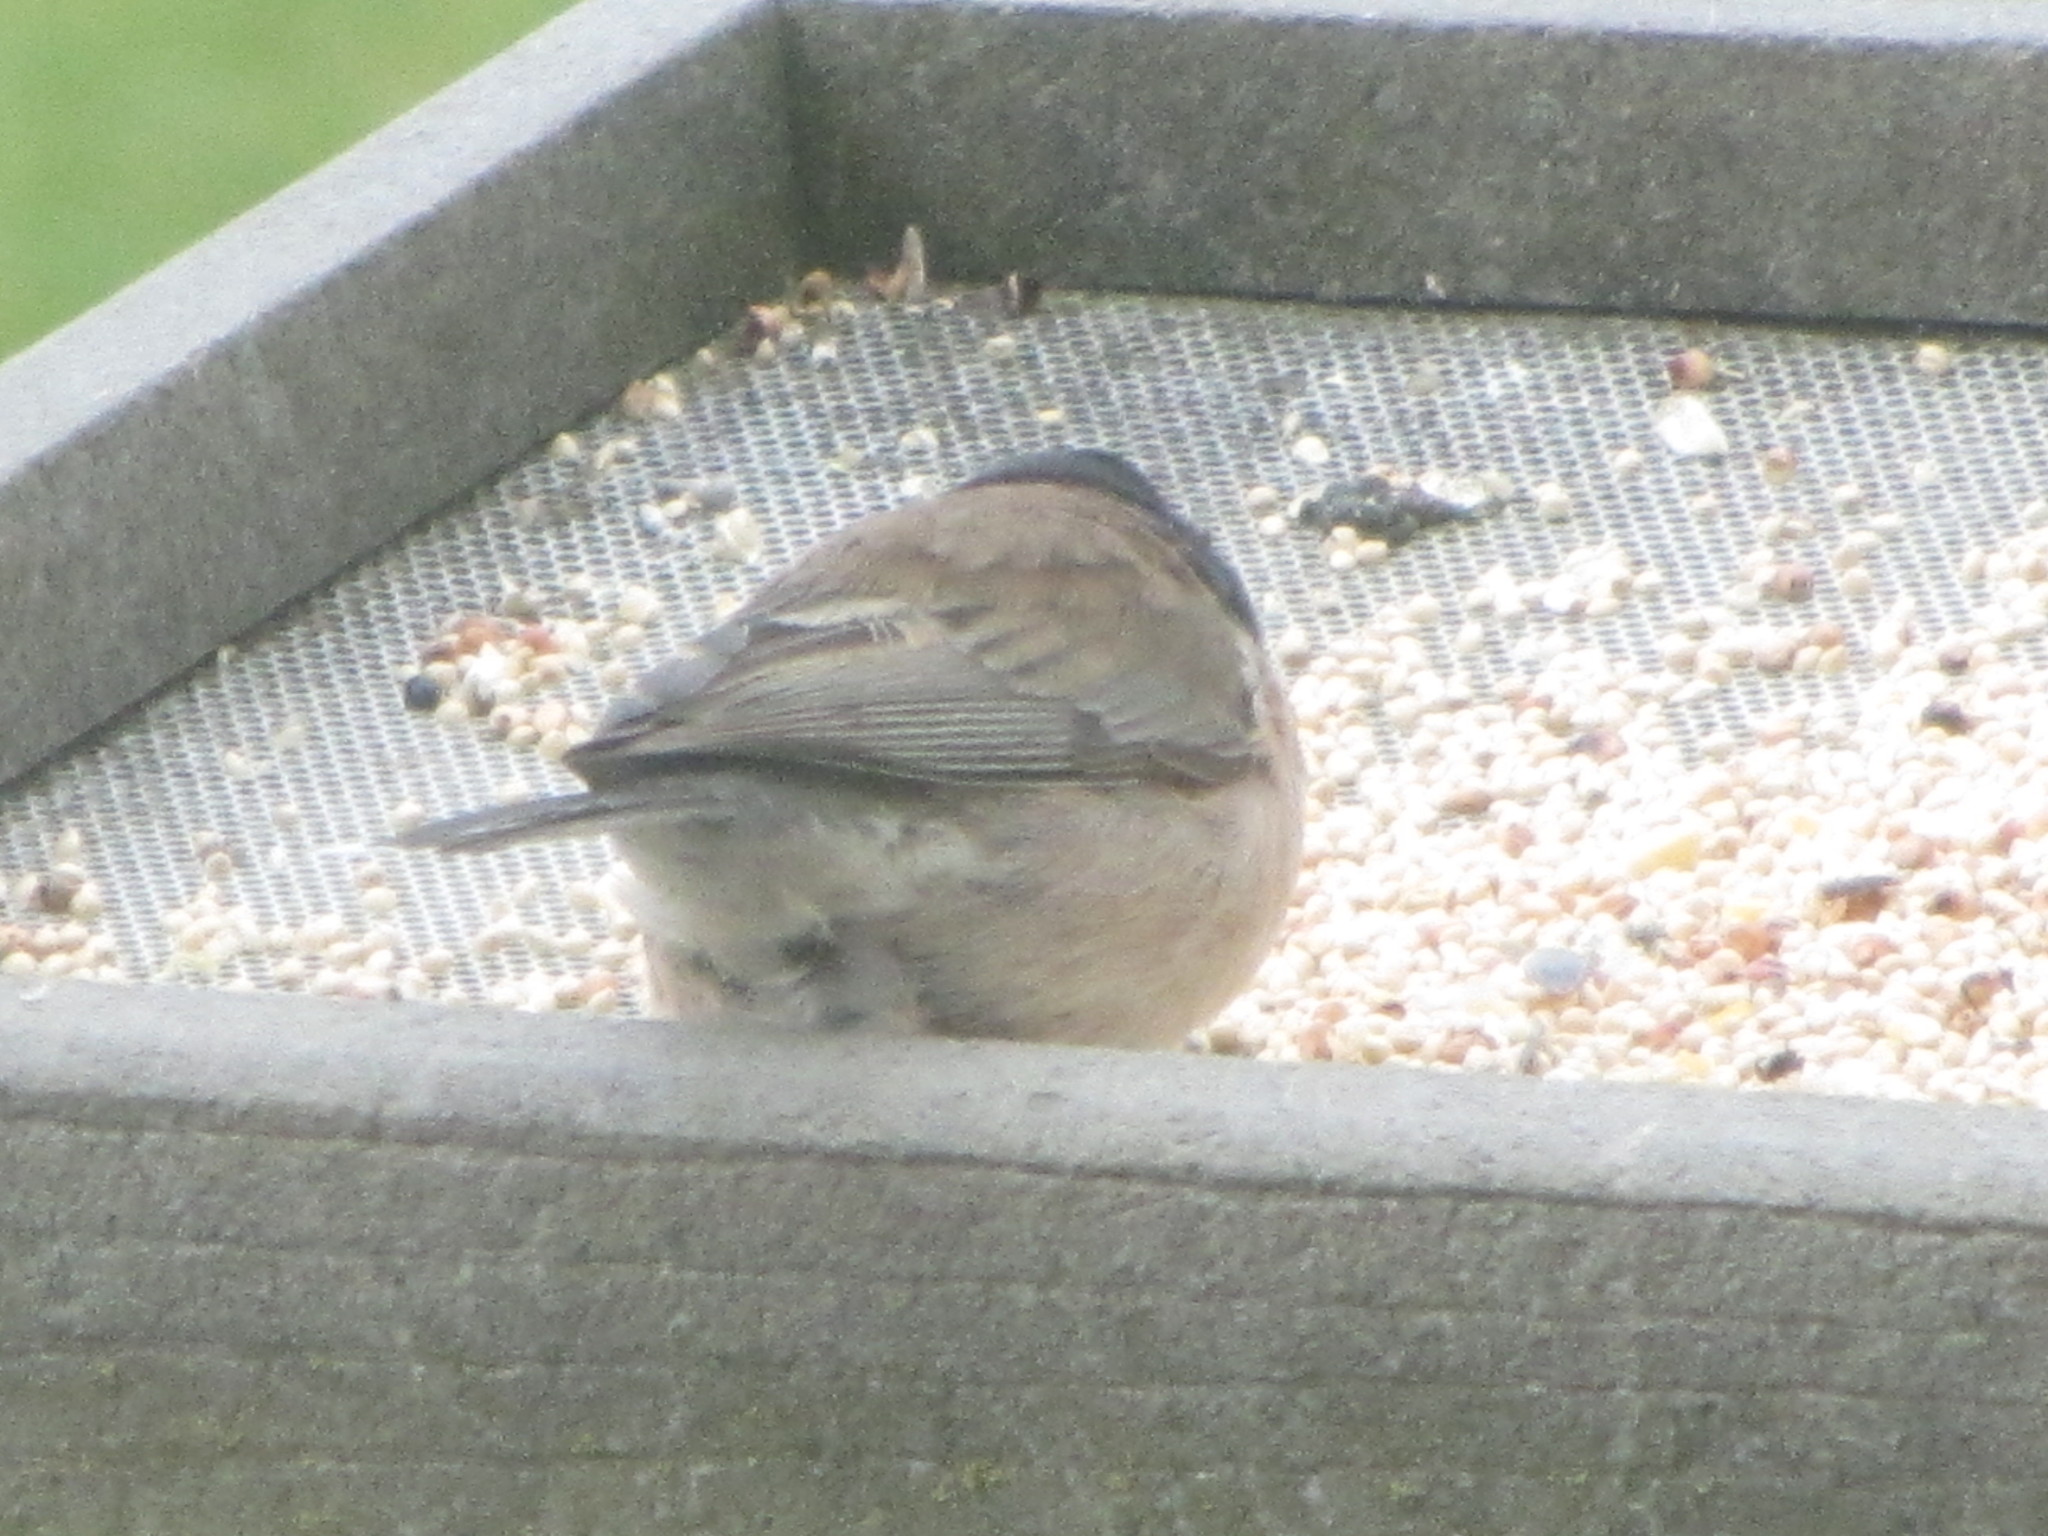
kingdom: Animalia
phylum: Chordata
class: Aves
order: Passeriformes
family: Passerellidae
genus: Junco
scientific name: Junco hyemalis
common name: Dark-eyed junco
